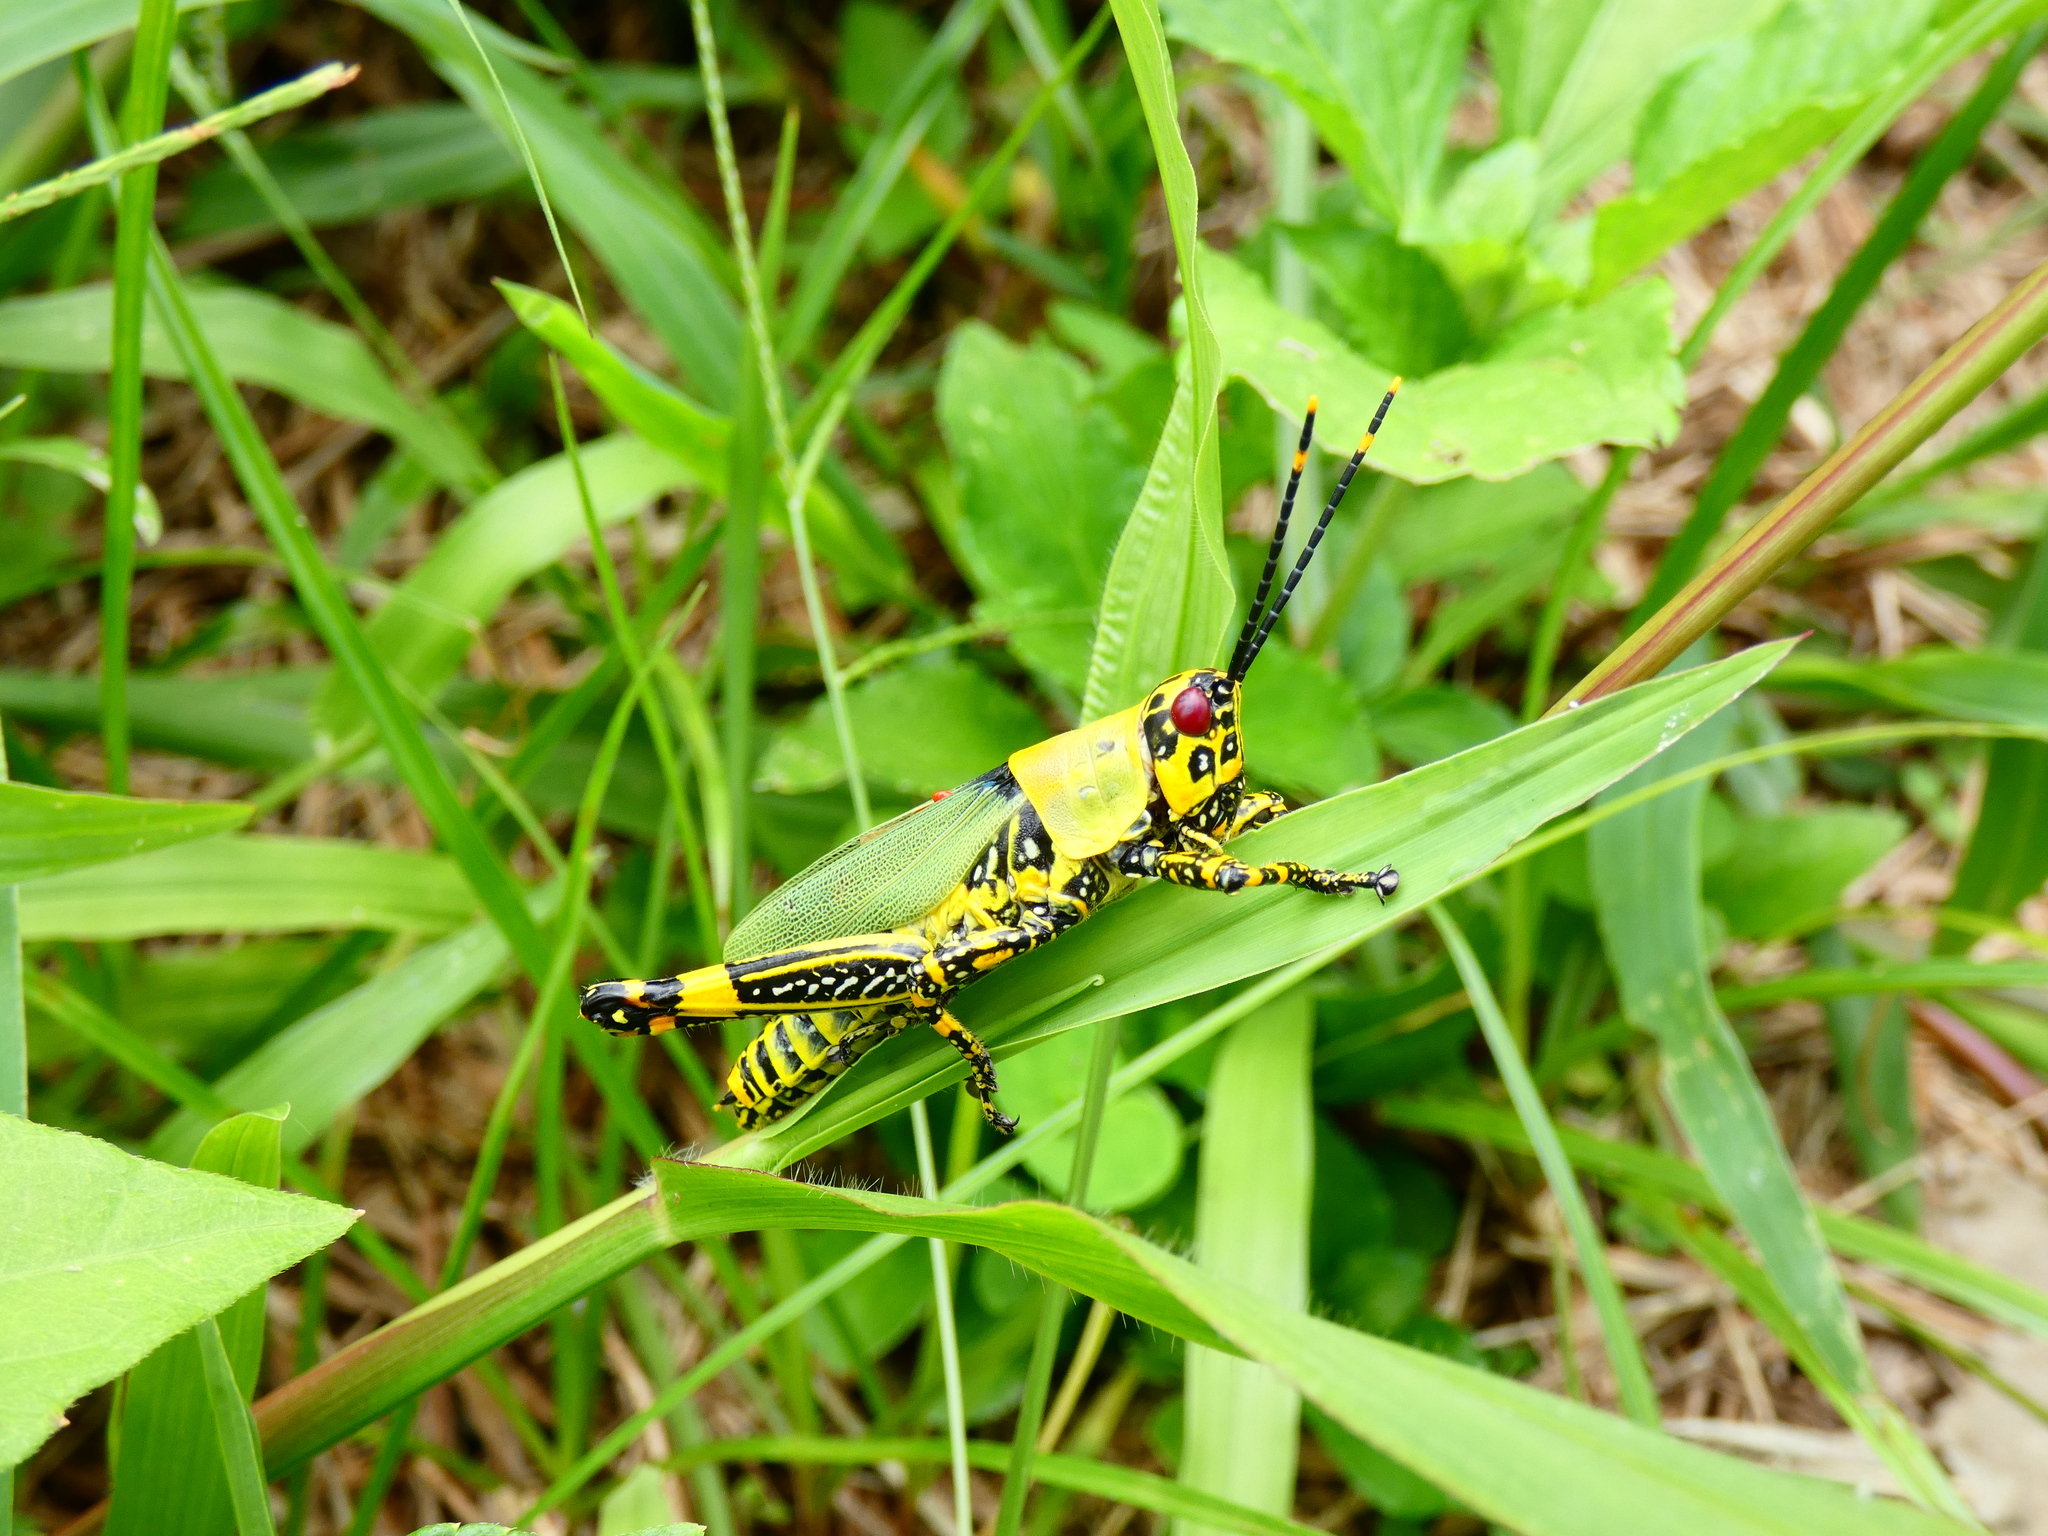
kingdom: Animalia
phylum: Arthropoda
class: Insecta
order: Orthoptera
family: Pyrgomorphidae
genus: Zonocerus
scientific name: Zonocerus variegatus
